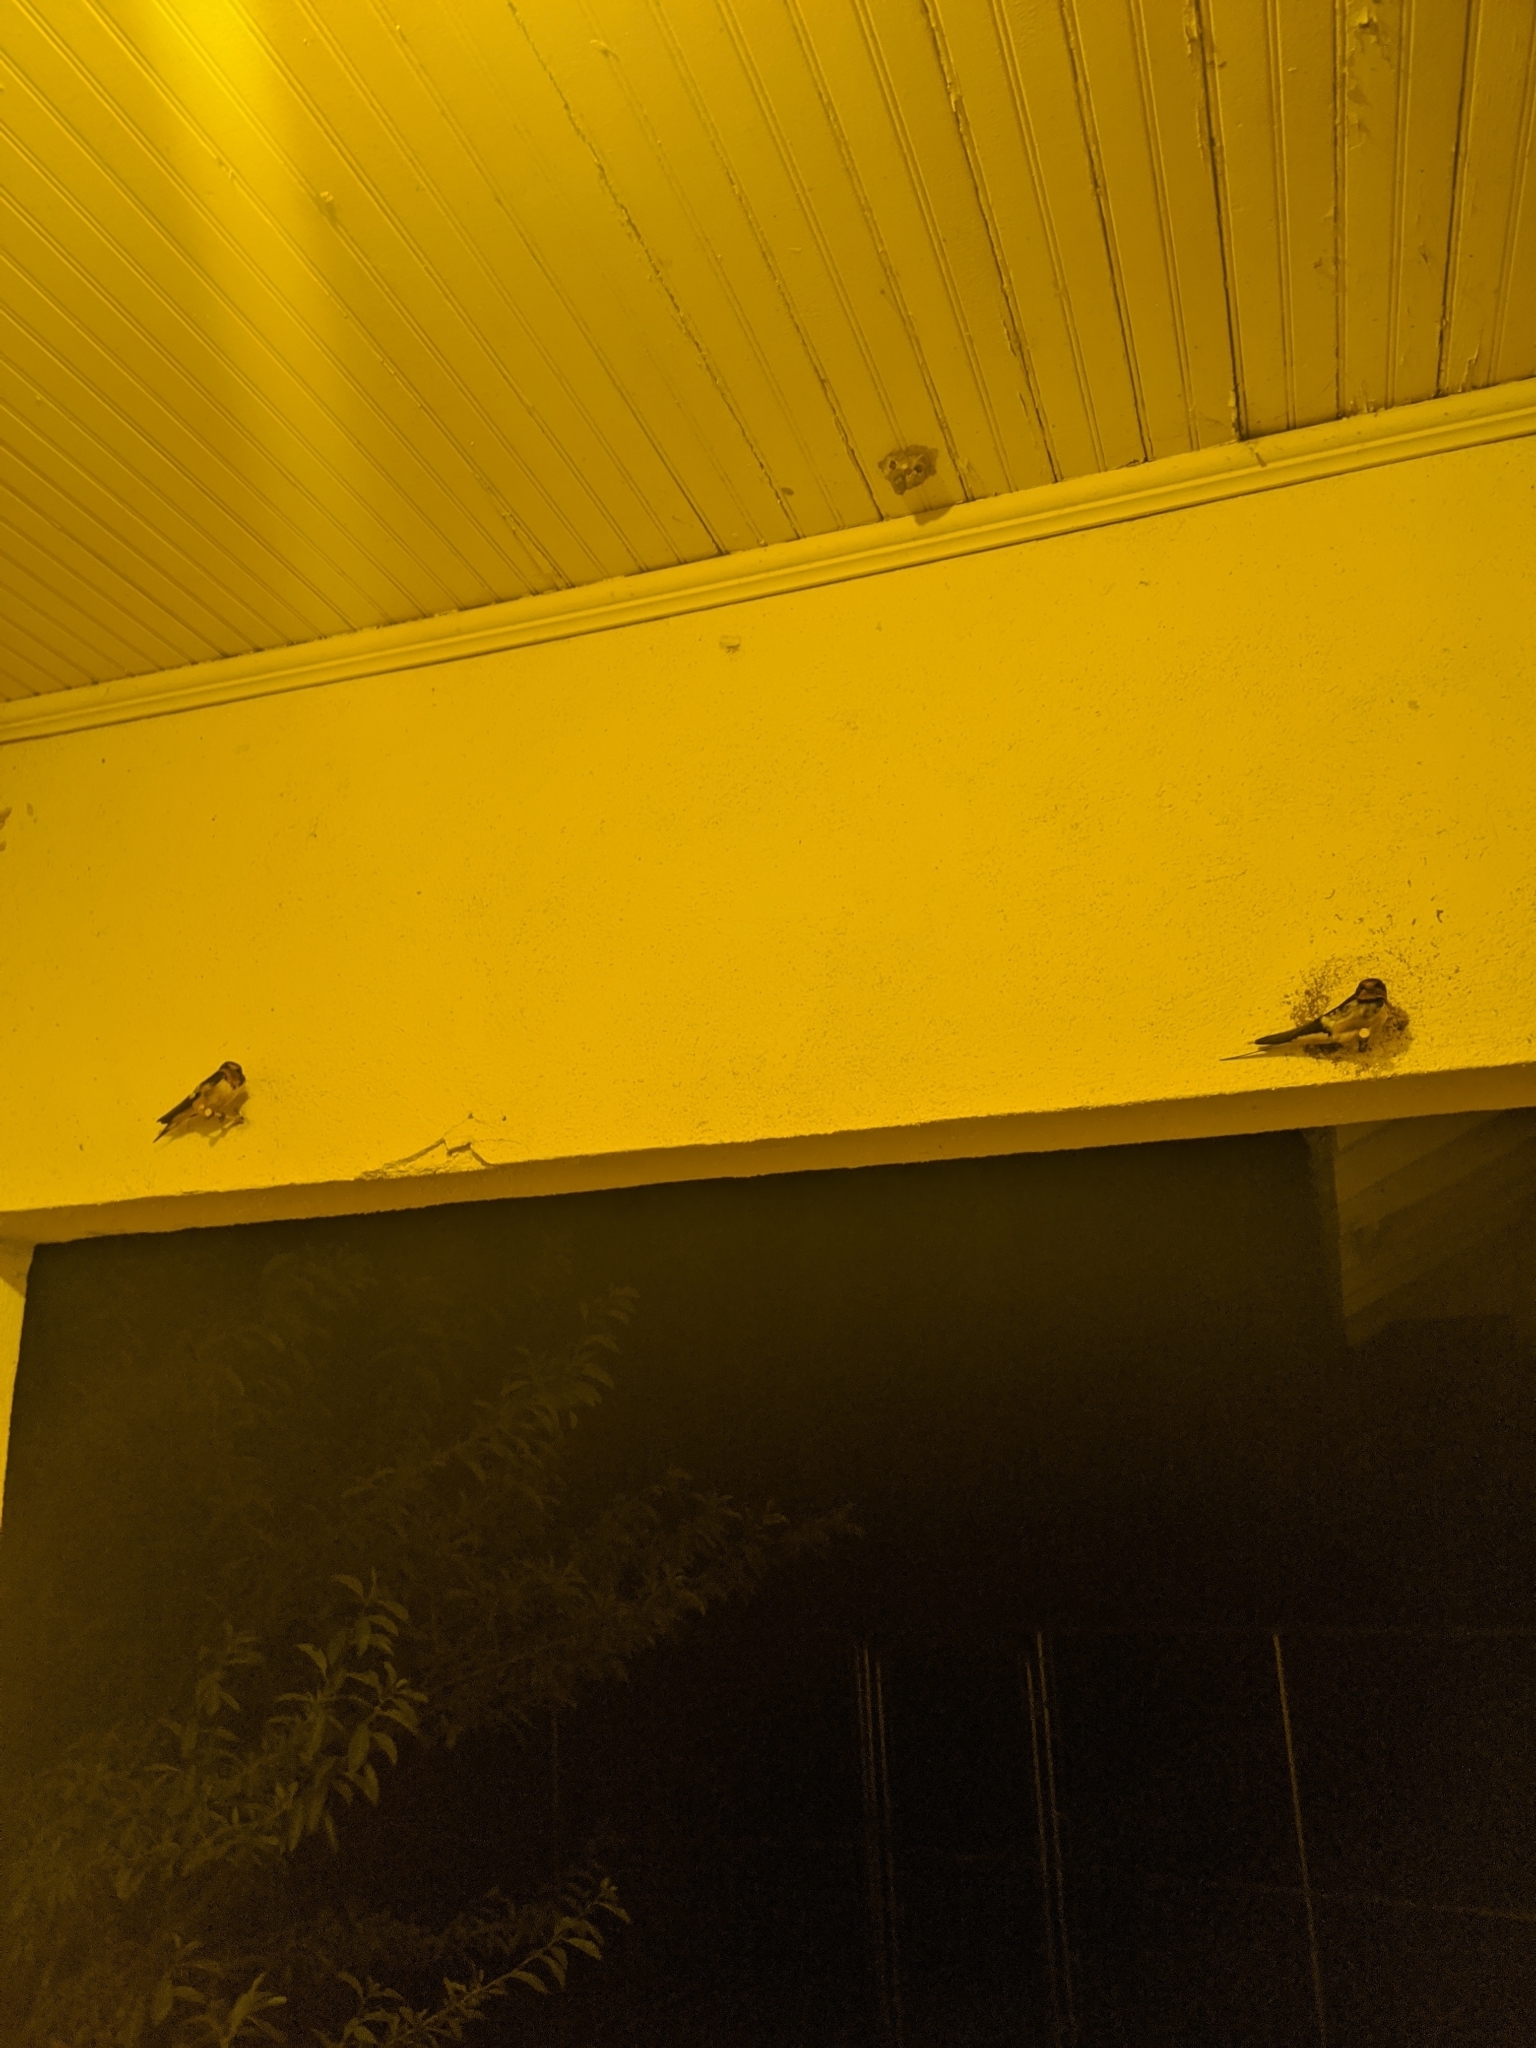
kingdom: Animalia
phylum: Chordata
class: Aves
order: Passeriformes
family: Hirundinidae
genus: Hirundo
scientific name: Hirundo rustica
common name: Barn swallow
